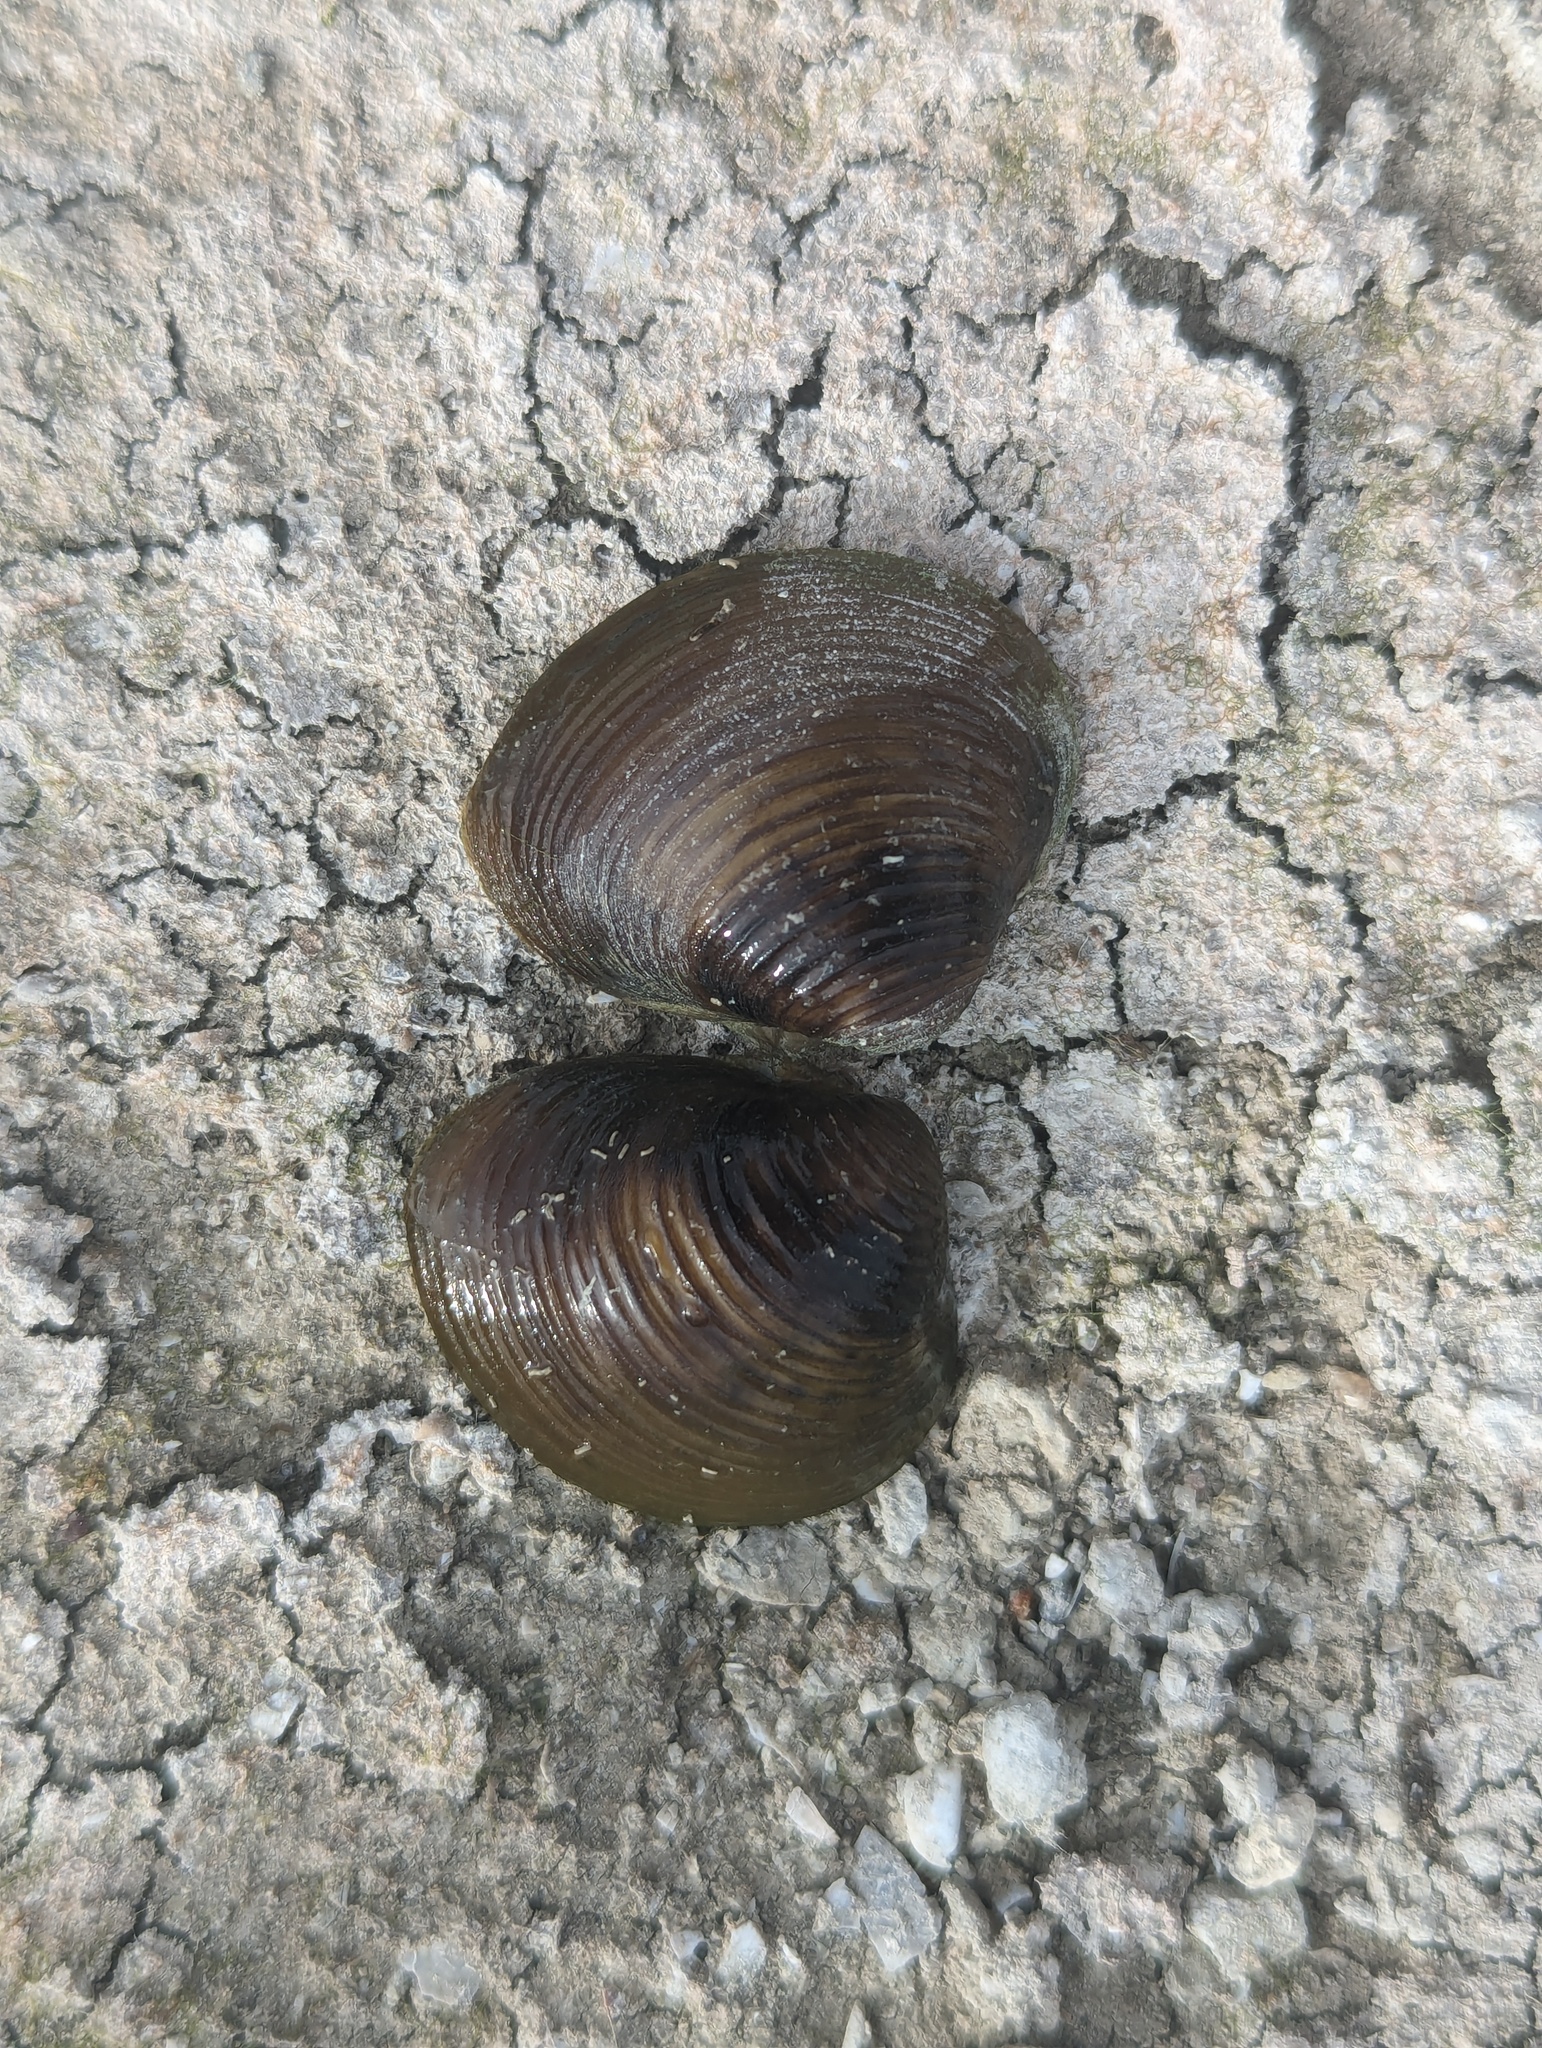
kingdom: Animalia
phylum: Mollusca
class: Bivalvia
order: Venerida
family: Cyrenidae
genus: Corbicula
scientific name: Corbicula fluminea
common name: Asian clam
